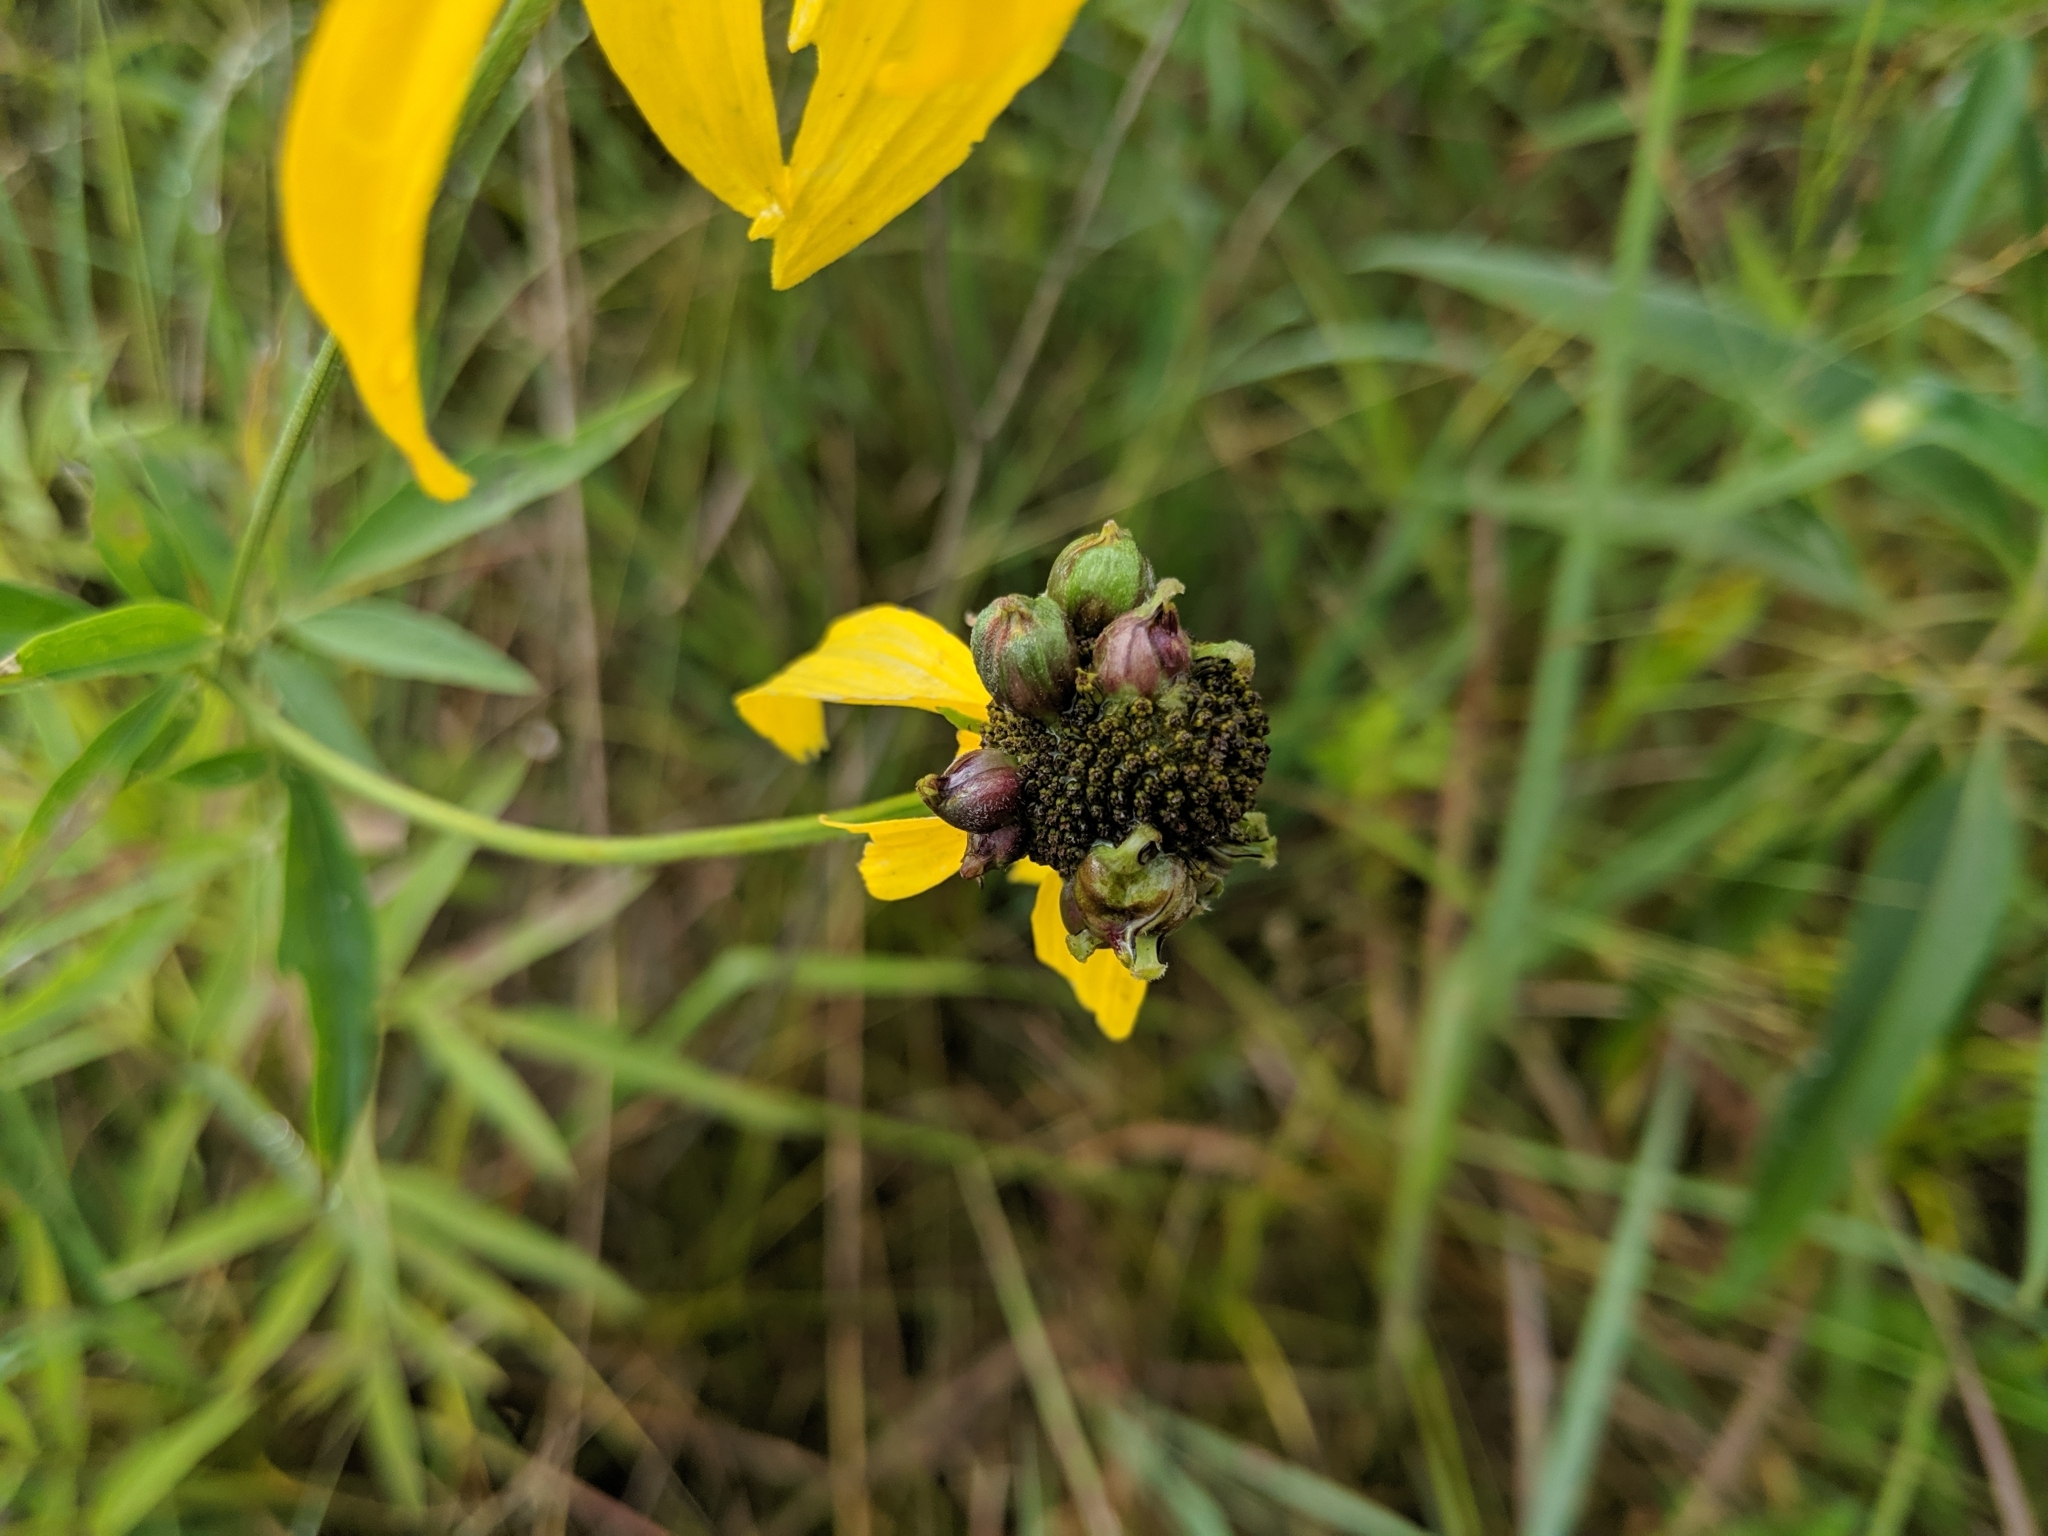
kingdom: Animalia
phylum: Arthropoda
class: Insecta
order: Diptera
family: Cecidomyiidae
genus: Asphondylia
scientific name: Asphondylia ratibidae
